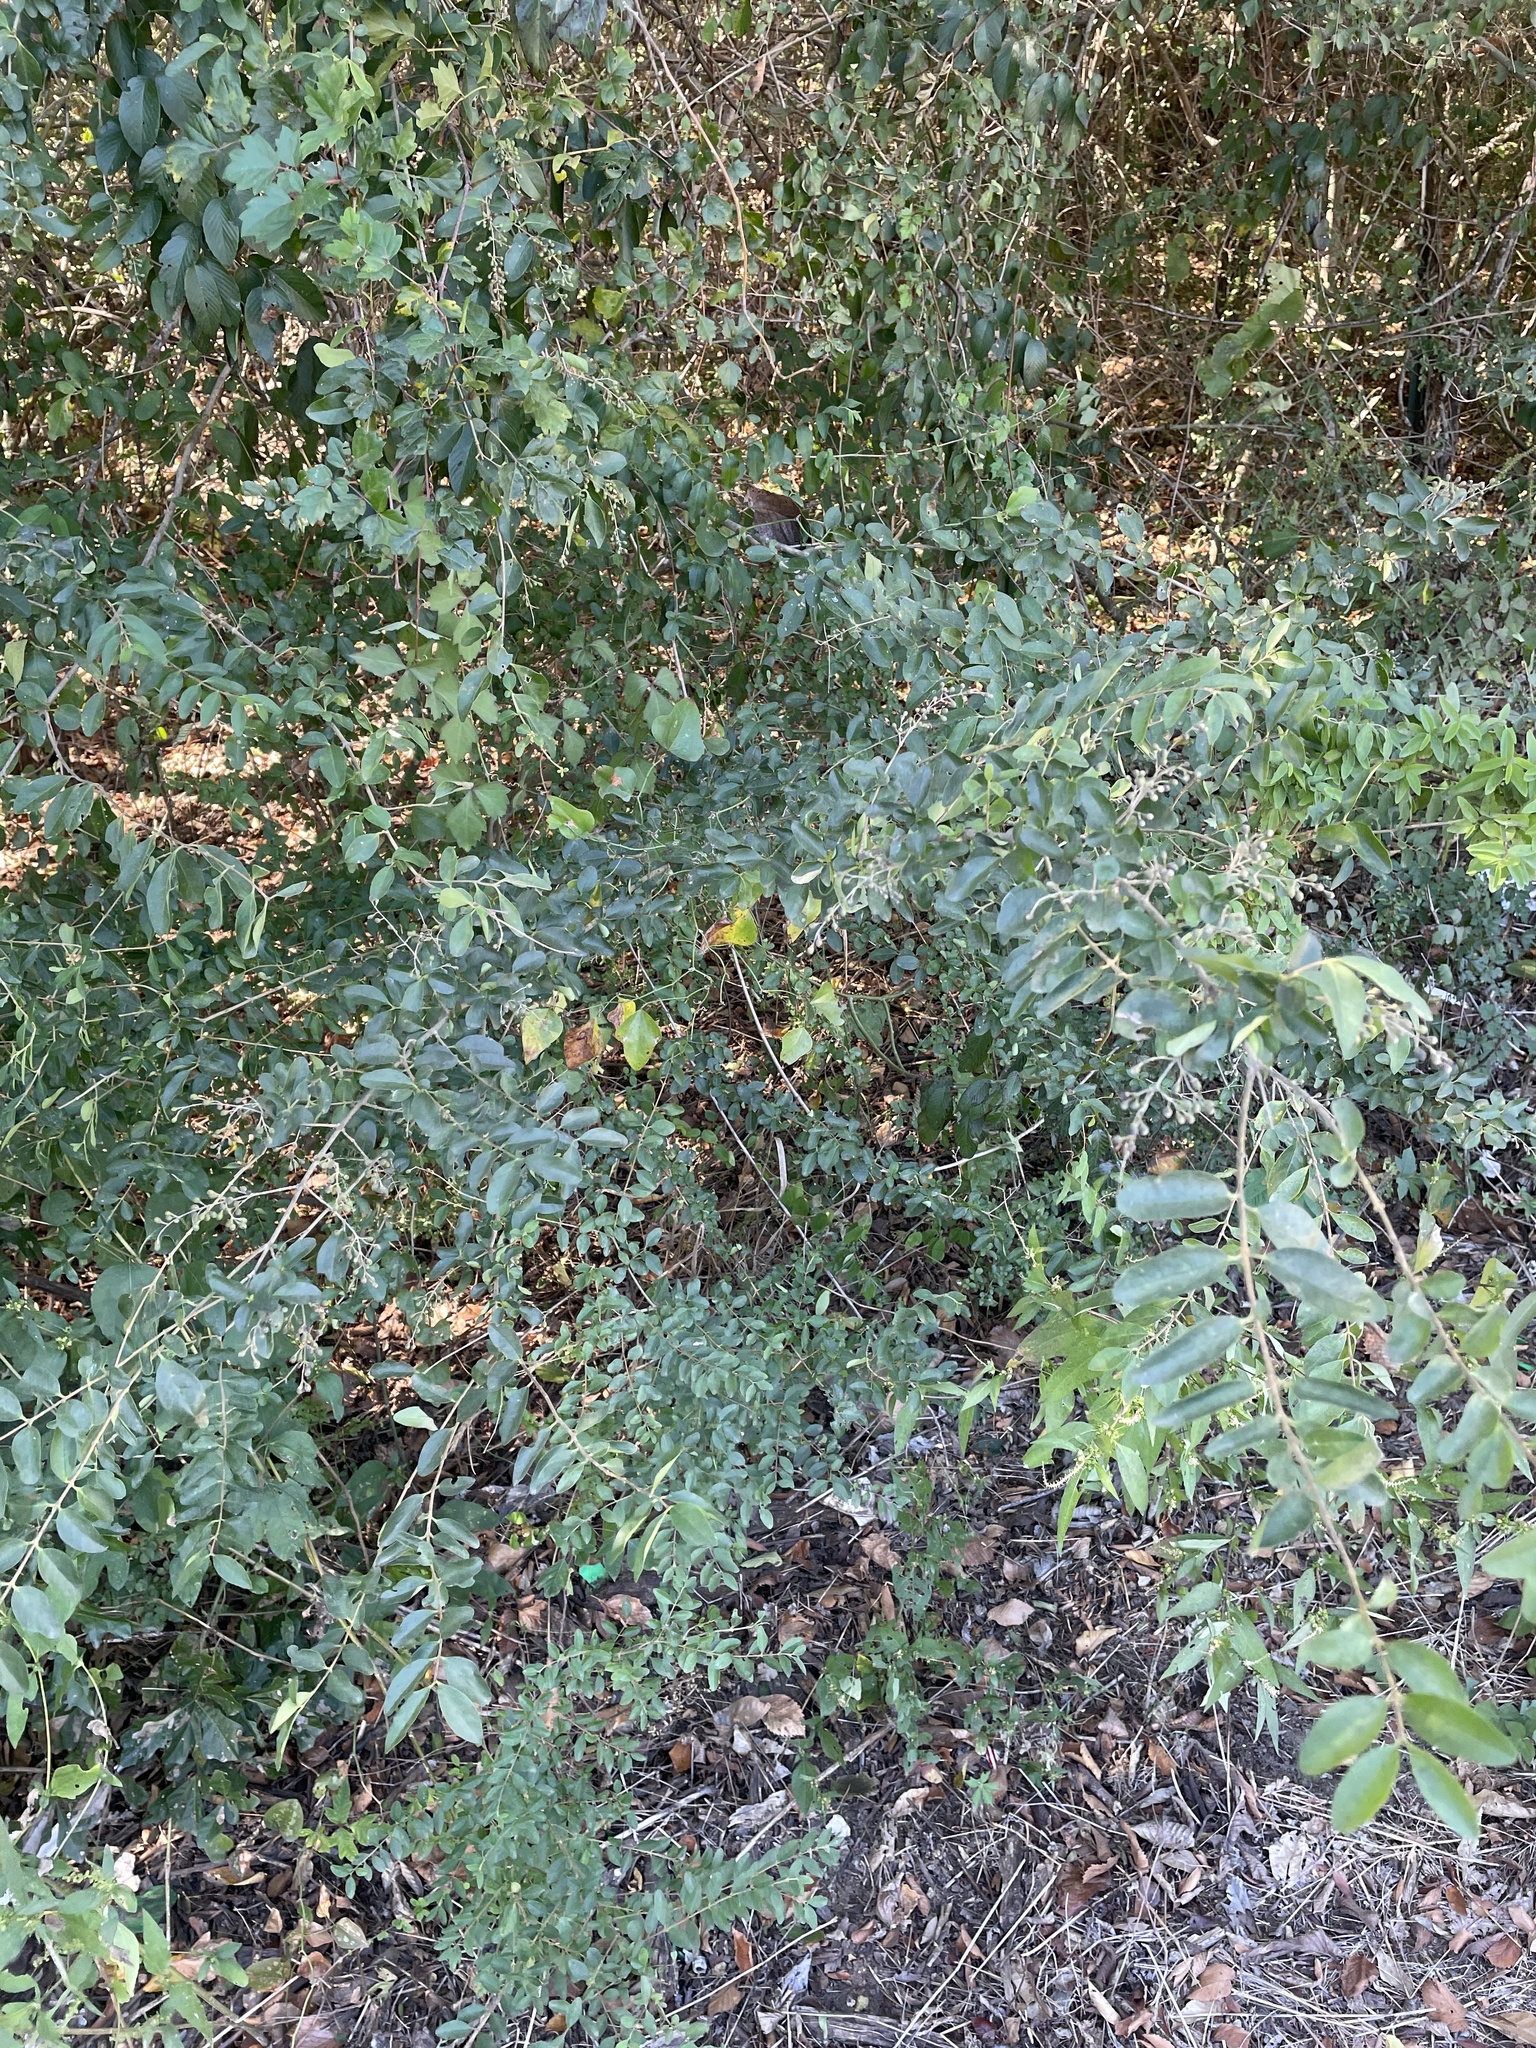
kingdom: Plantae
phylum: Tracheophyta
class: Magnoliopsida
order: Lamiales
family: Oleaceae
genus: Ligustrum
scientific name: Ligustrum sinense
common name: Chinese privet
